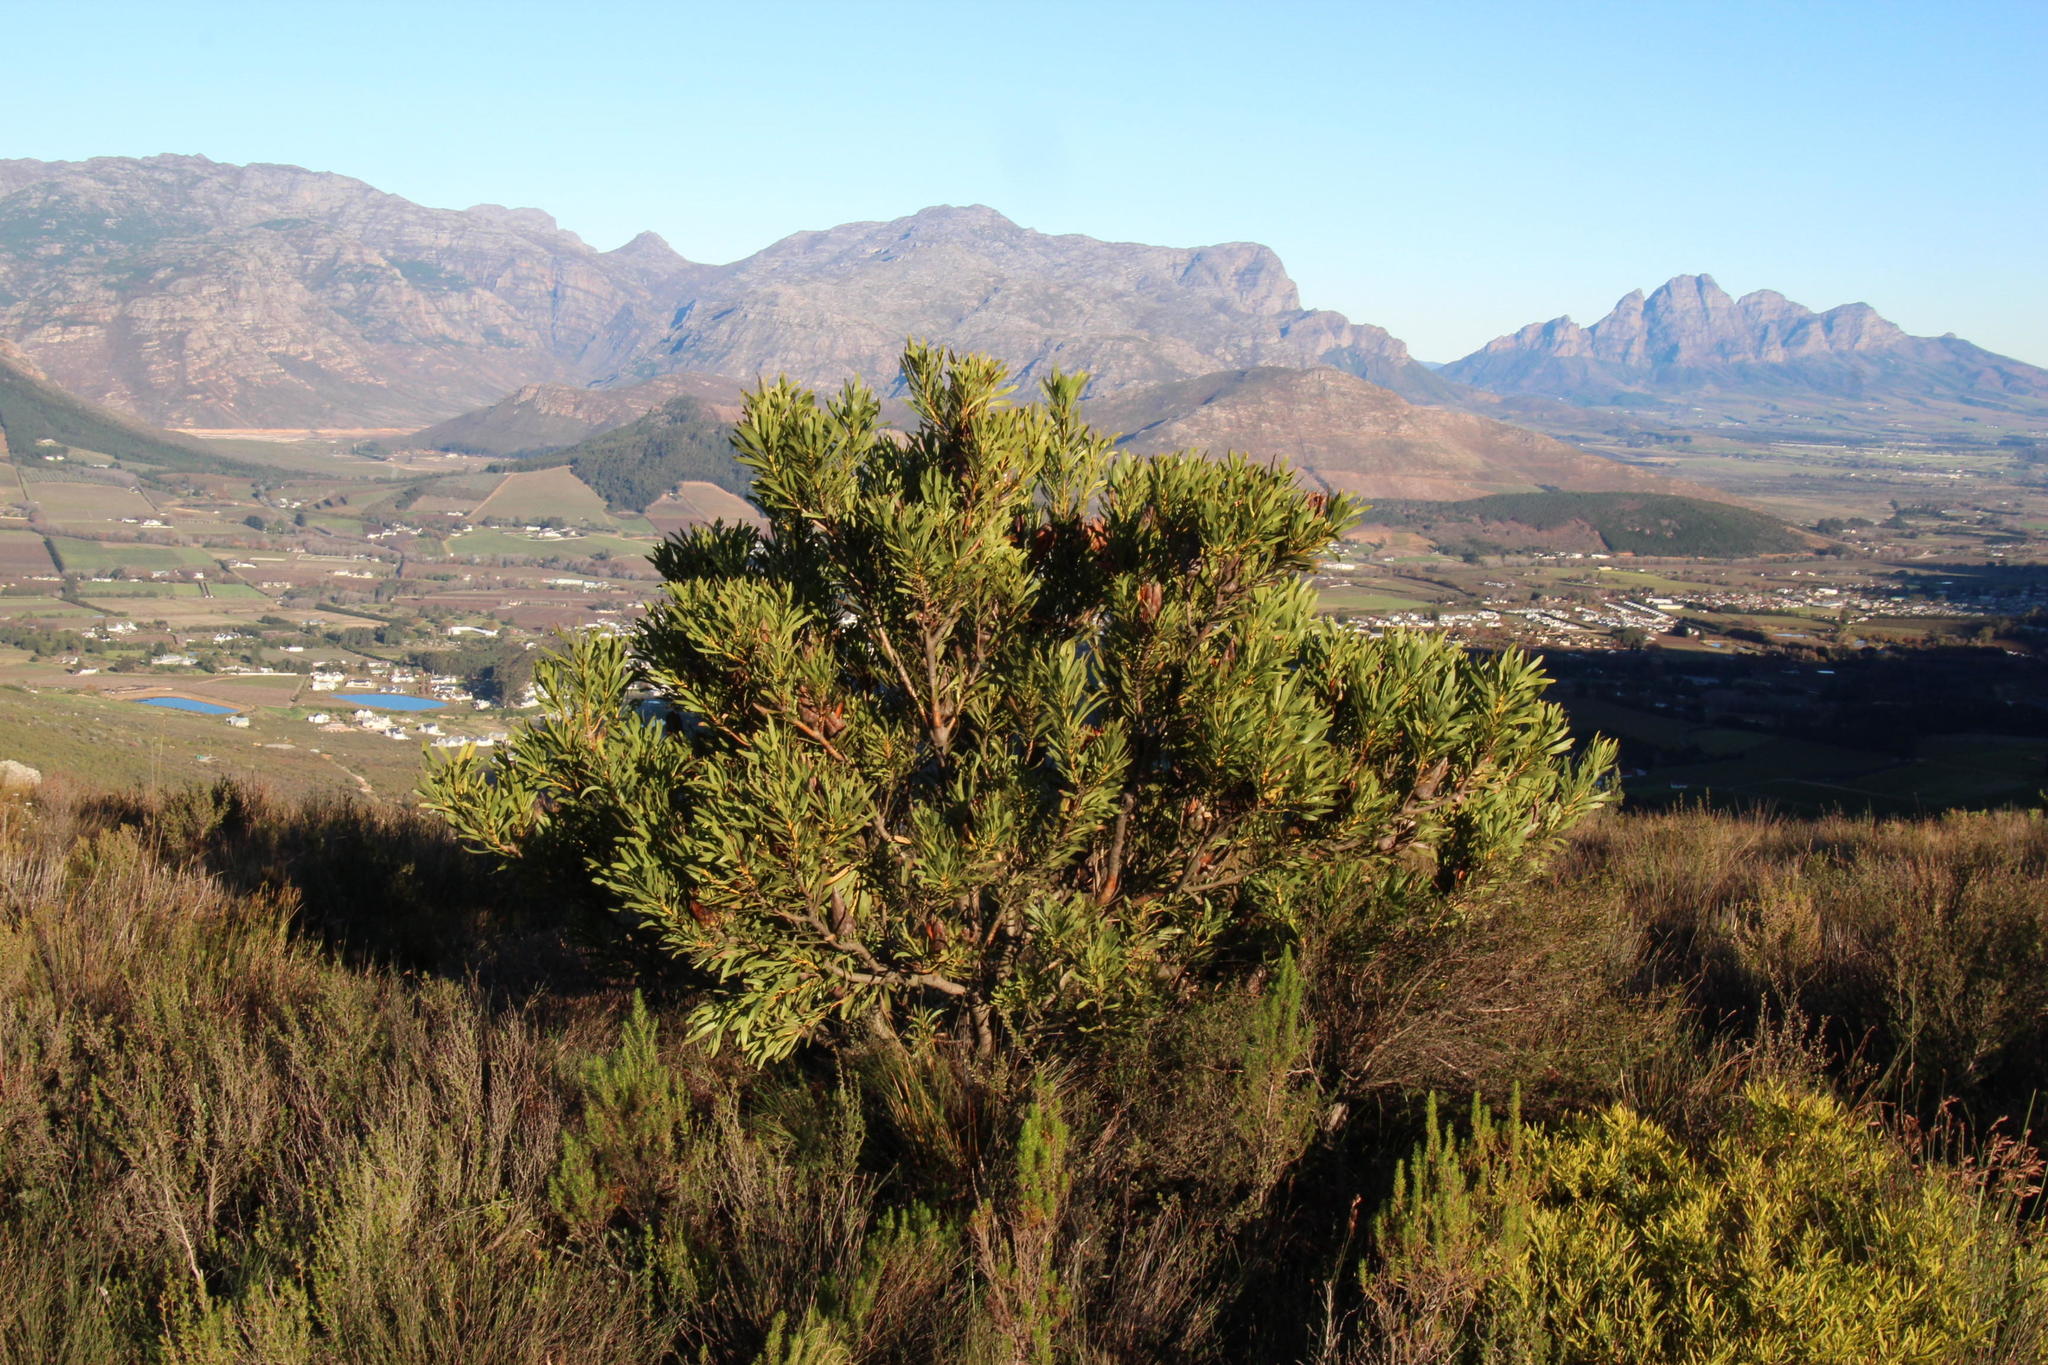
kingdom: Plantae
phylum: Tracheophyta
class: Magnoliopsida
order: Proteales
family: Proteaceae
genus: Protea
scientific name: Protea repens
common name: Sugarbush
